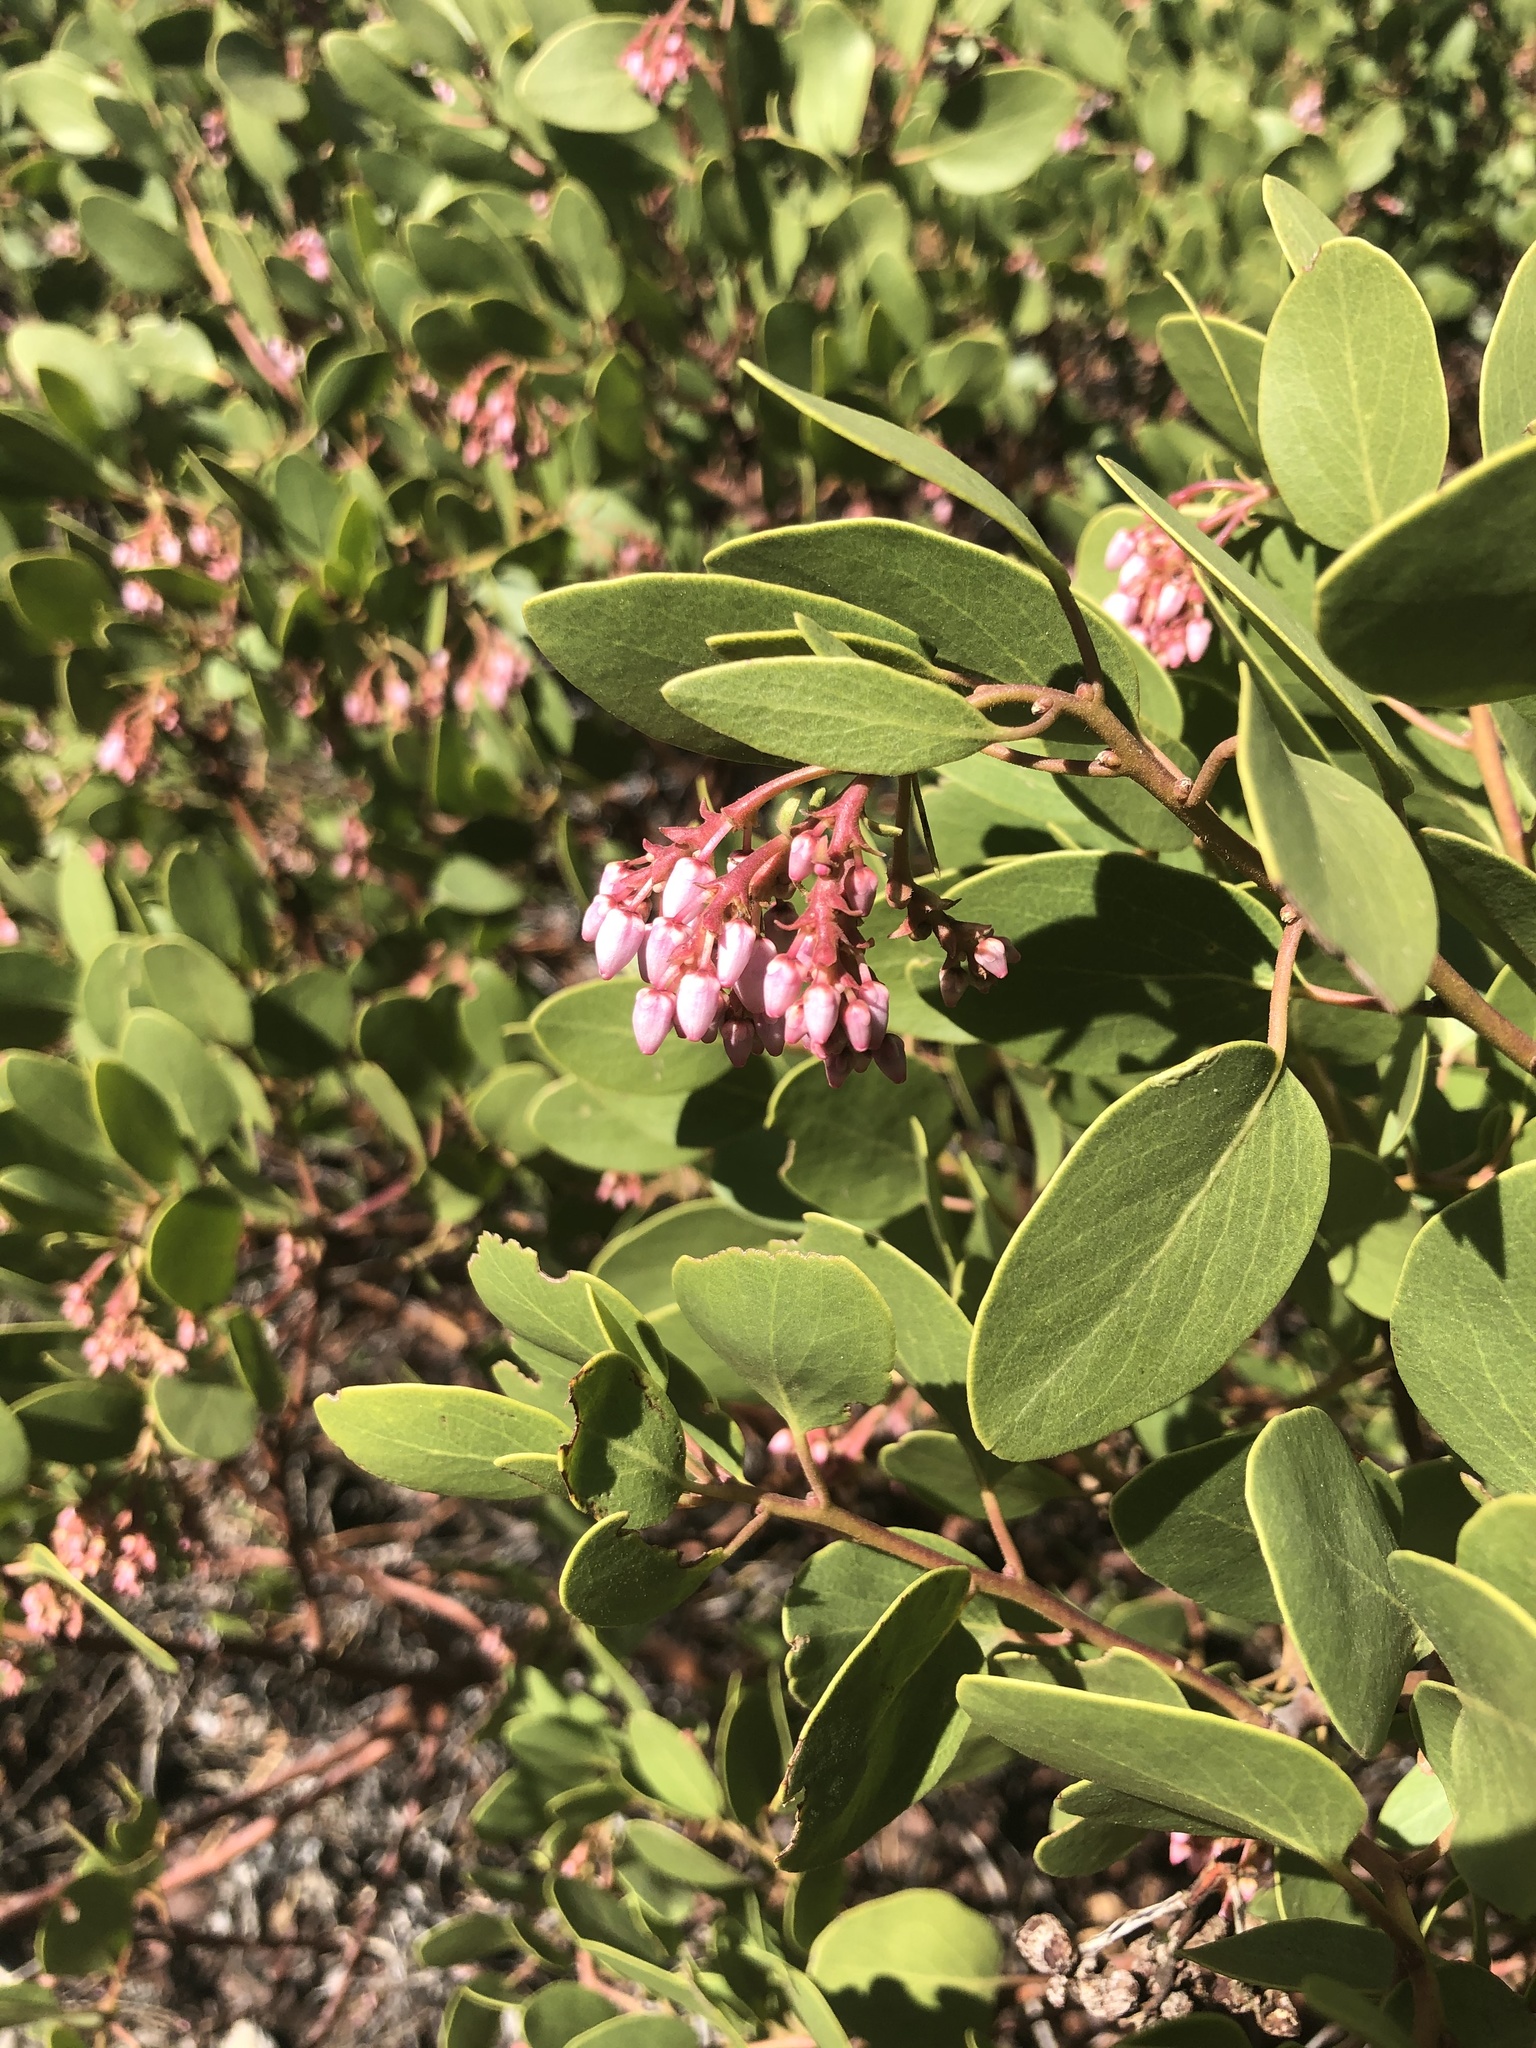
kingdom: Plantae
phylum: Tracheophyta
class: Magnoliopsida
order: Ericales
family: Ericaceae
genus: Arctostaphylos
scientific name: Arctostaphylos patula
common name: Green-leaf manzanita
